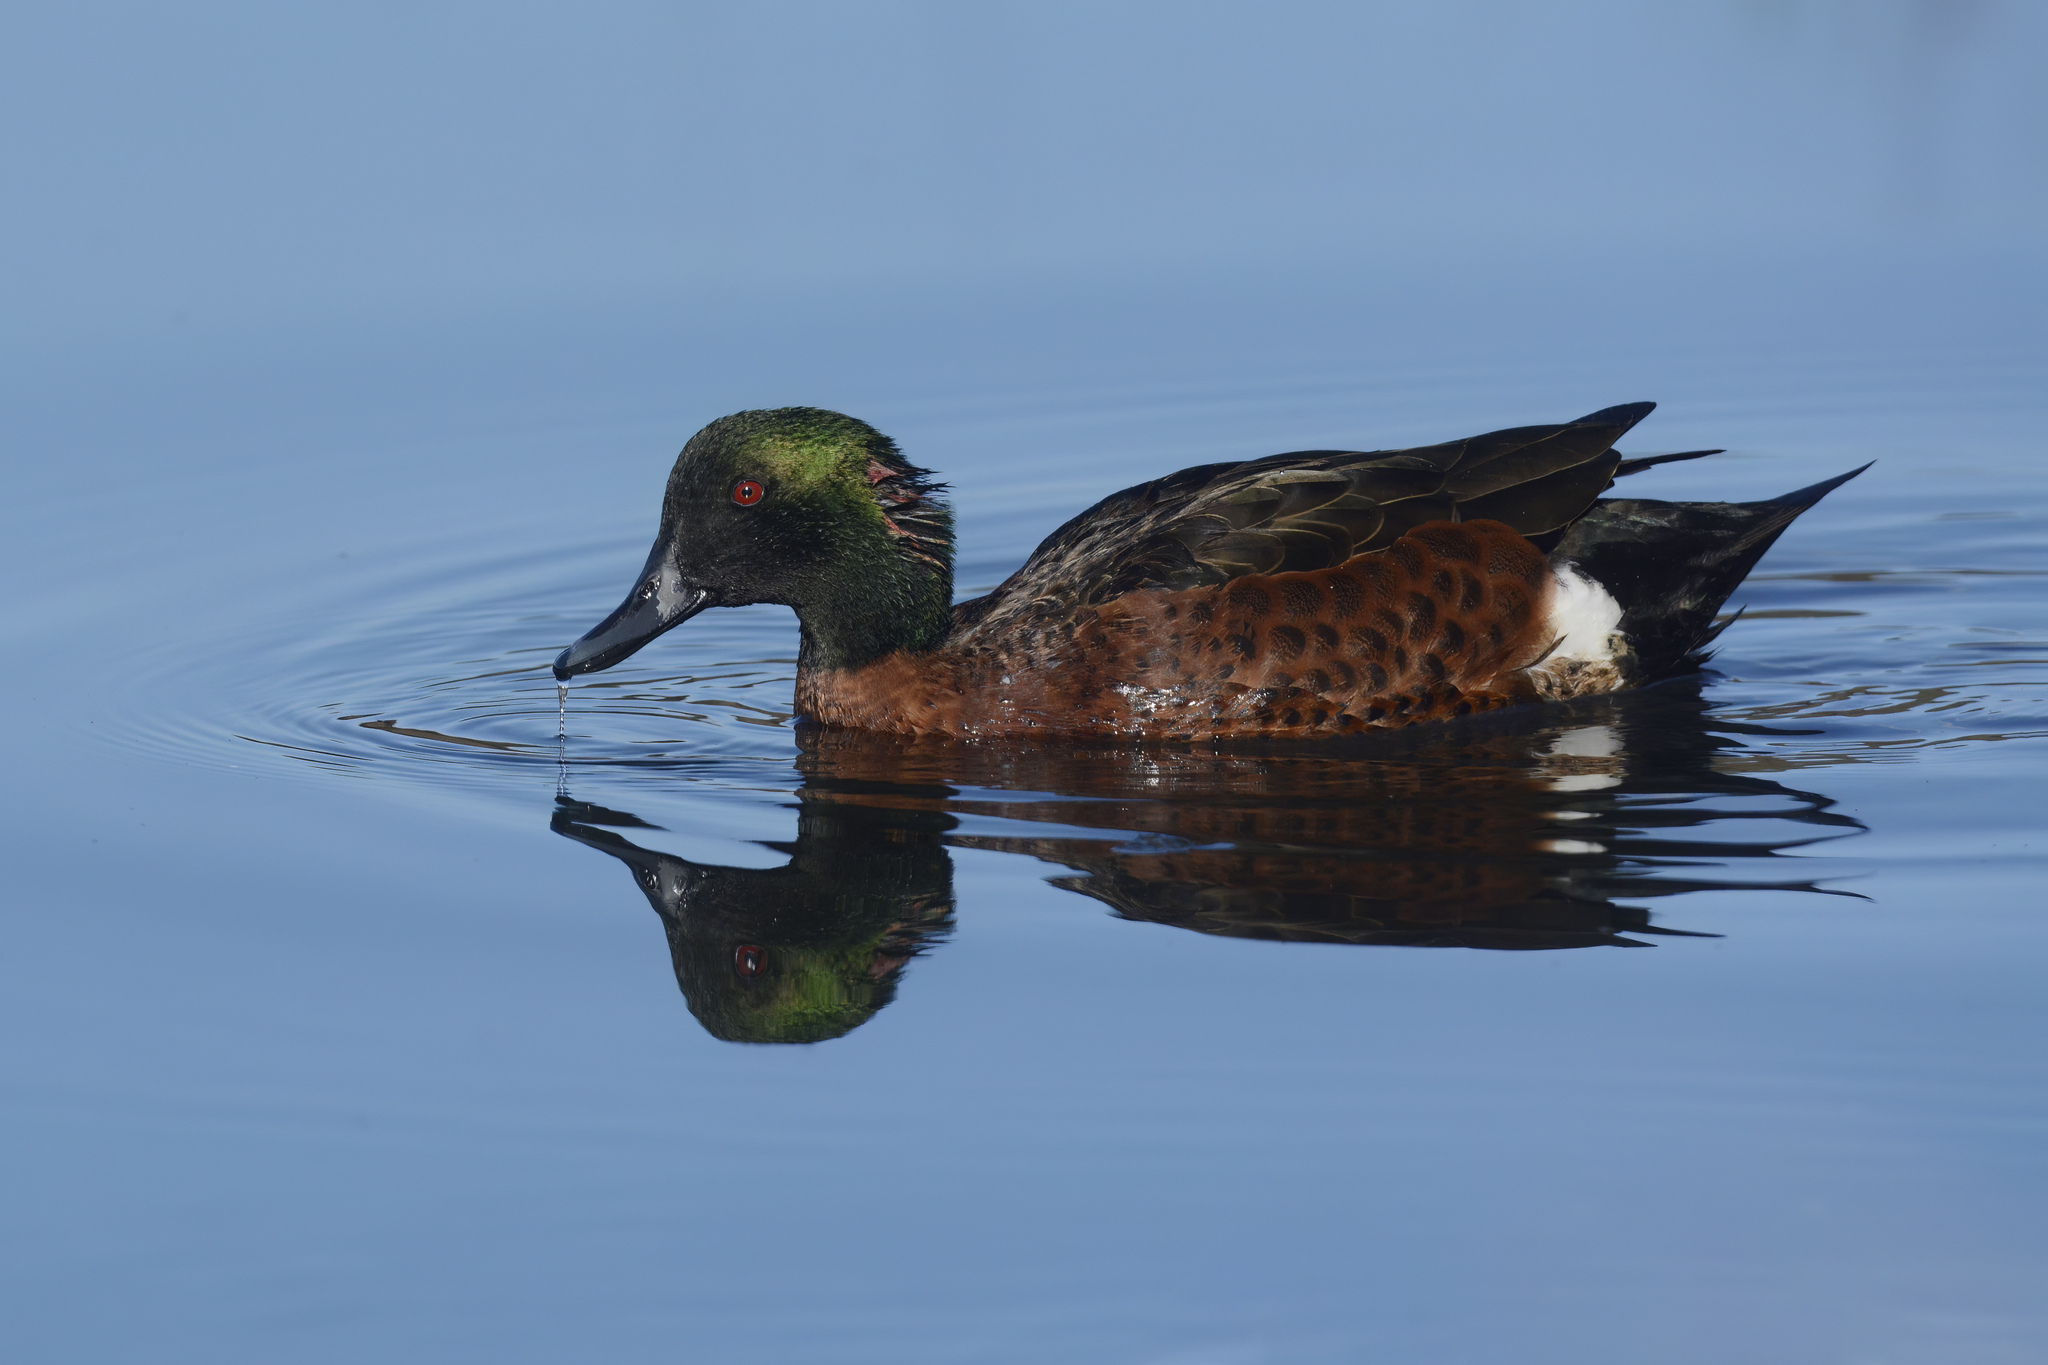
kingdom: Animalia
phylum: Chordata
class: Aves
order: Anseriformes
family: Anatidae
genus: Anas
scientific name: Anas castanea
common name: Chestnut teal
